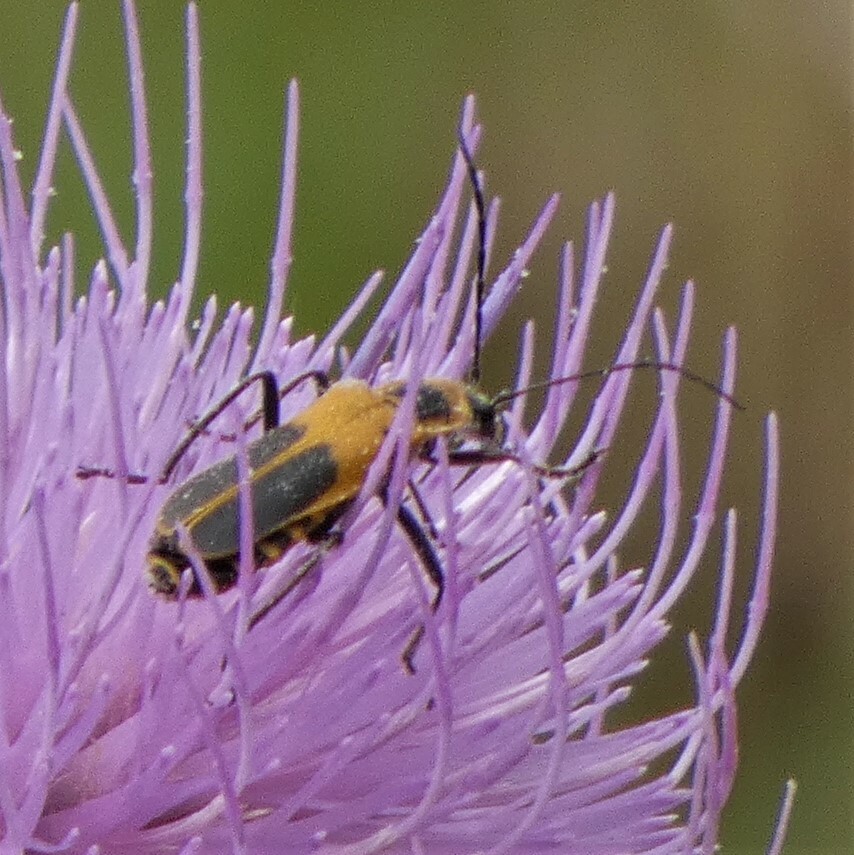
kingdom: Animalia
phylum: Arthropoda
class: Insecta
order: Coleoptera
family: Cantharidae
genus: Chauliognathus
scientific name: Chauliognathus pensylvanicus
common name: Goldenrod soldier beetle
